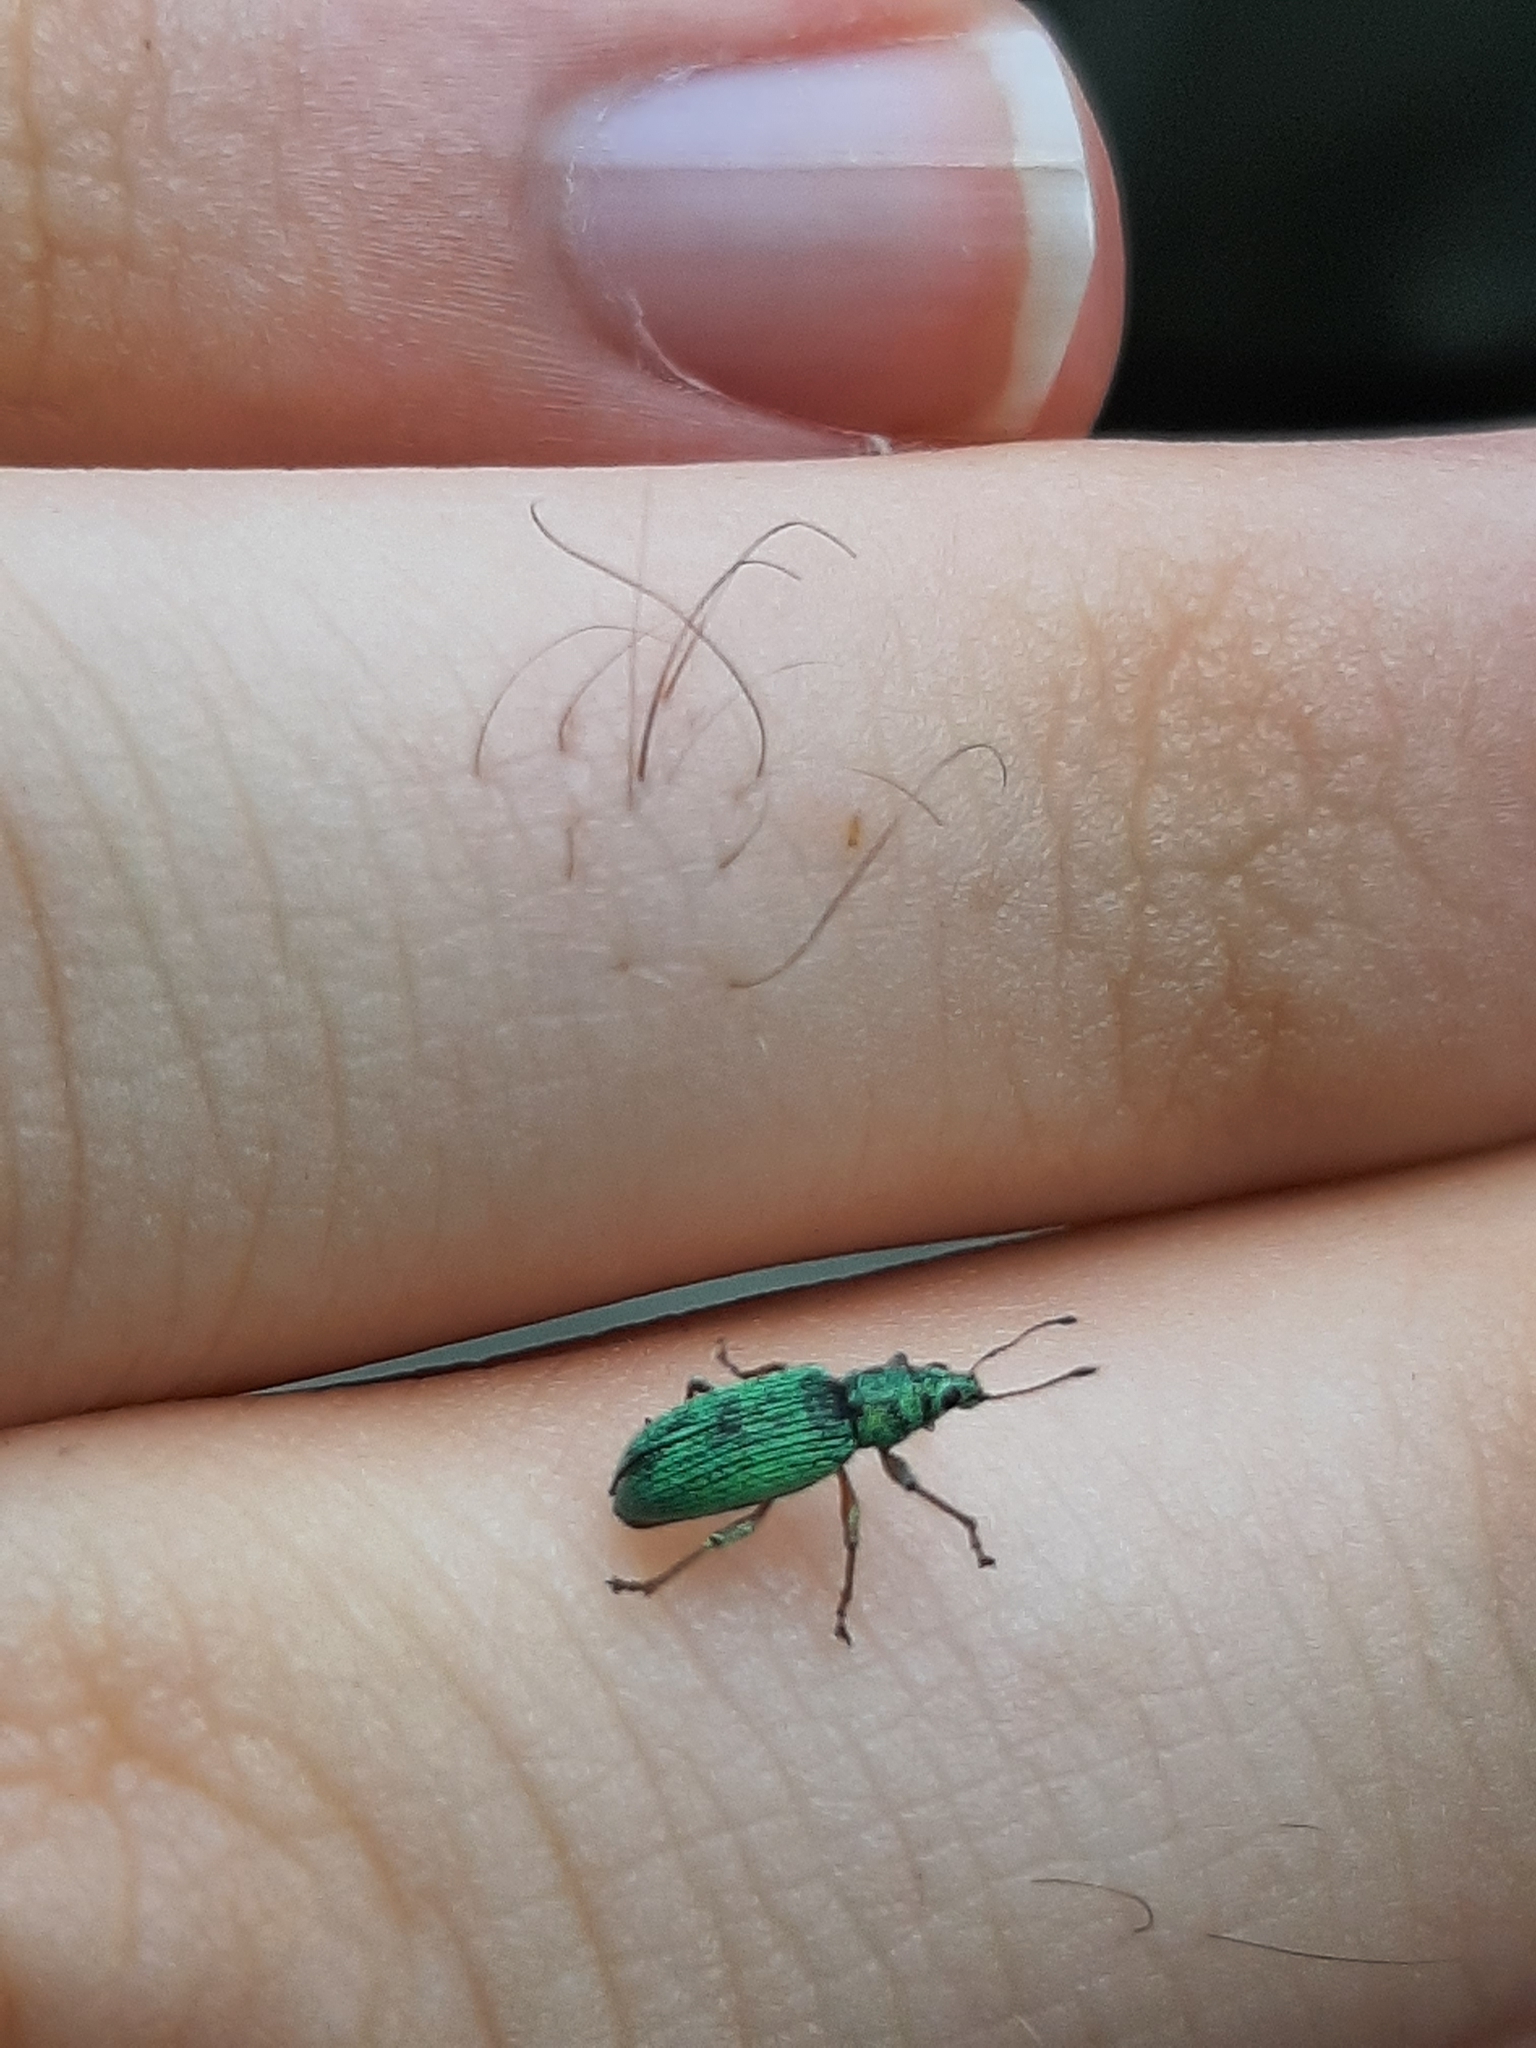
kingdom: Animalia
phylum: Arthropoda
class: Insecta
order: Coleoptera
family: Curculionidae
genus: Polydrusus
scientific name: Polydrusus formosus
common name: Weevil
